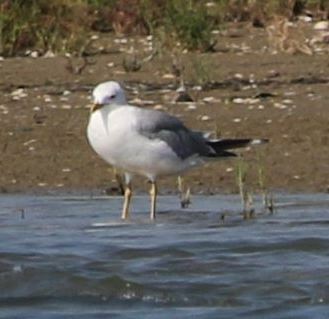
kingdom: Animalia
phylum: Chordata
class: Aves
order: Charadriiformes
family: Laridae
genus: Larus
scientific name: Larus michahellis
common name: Yellow-legged gull
